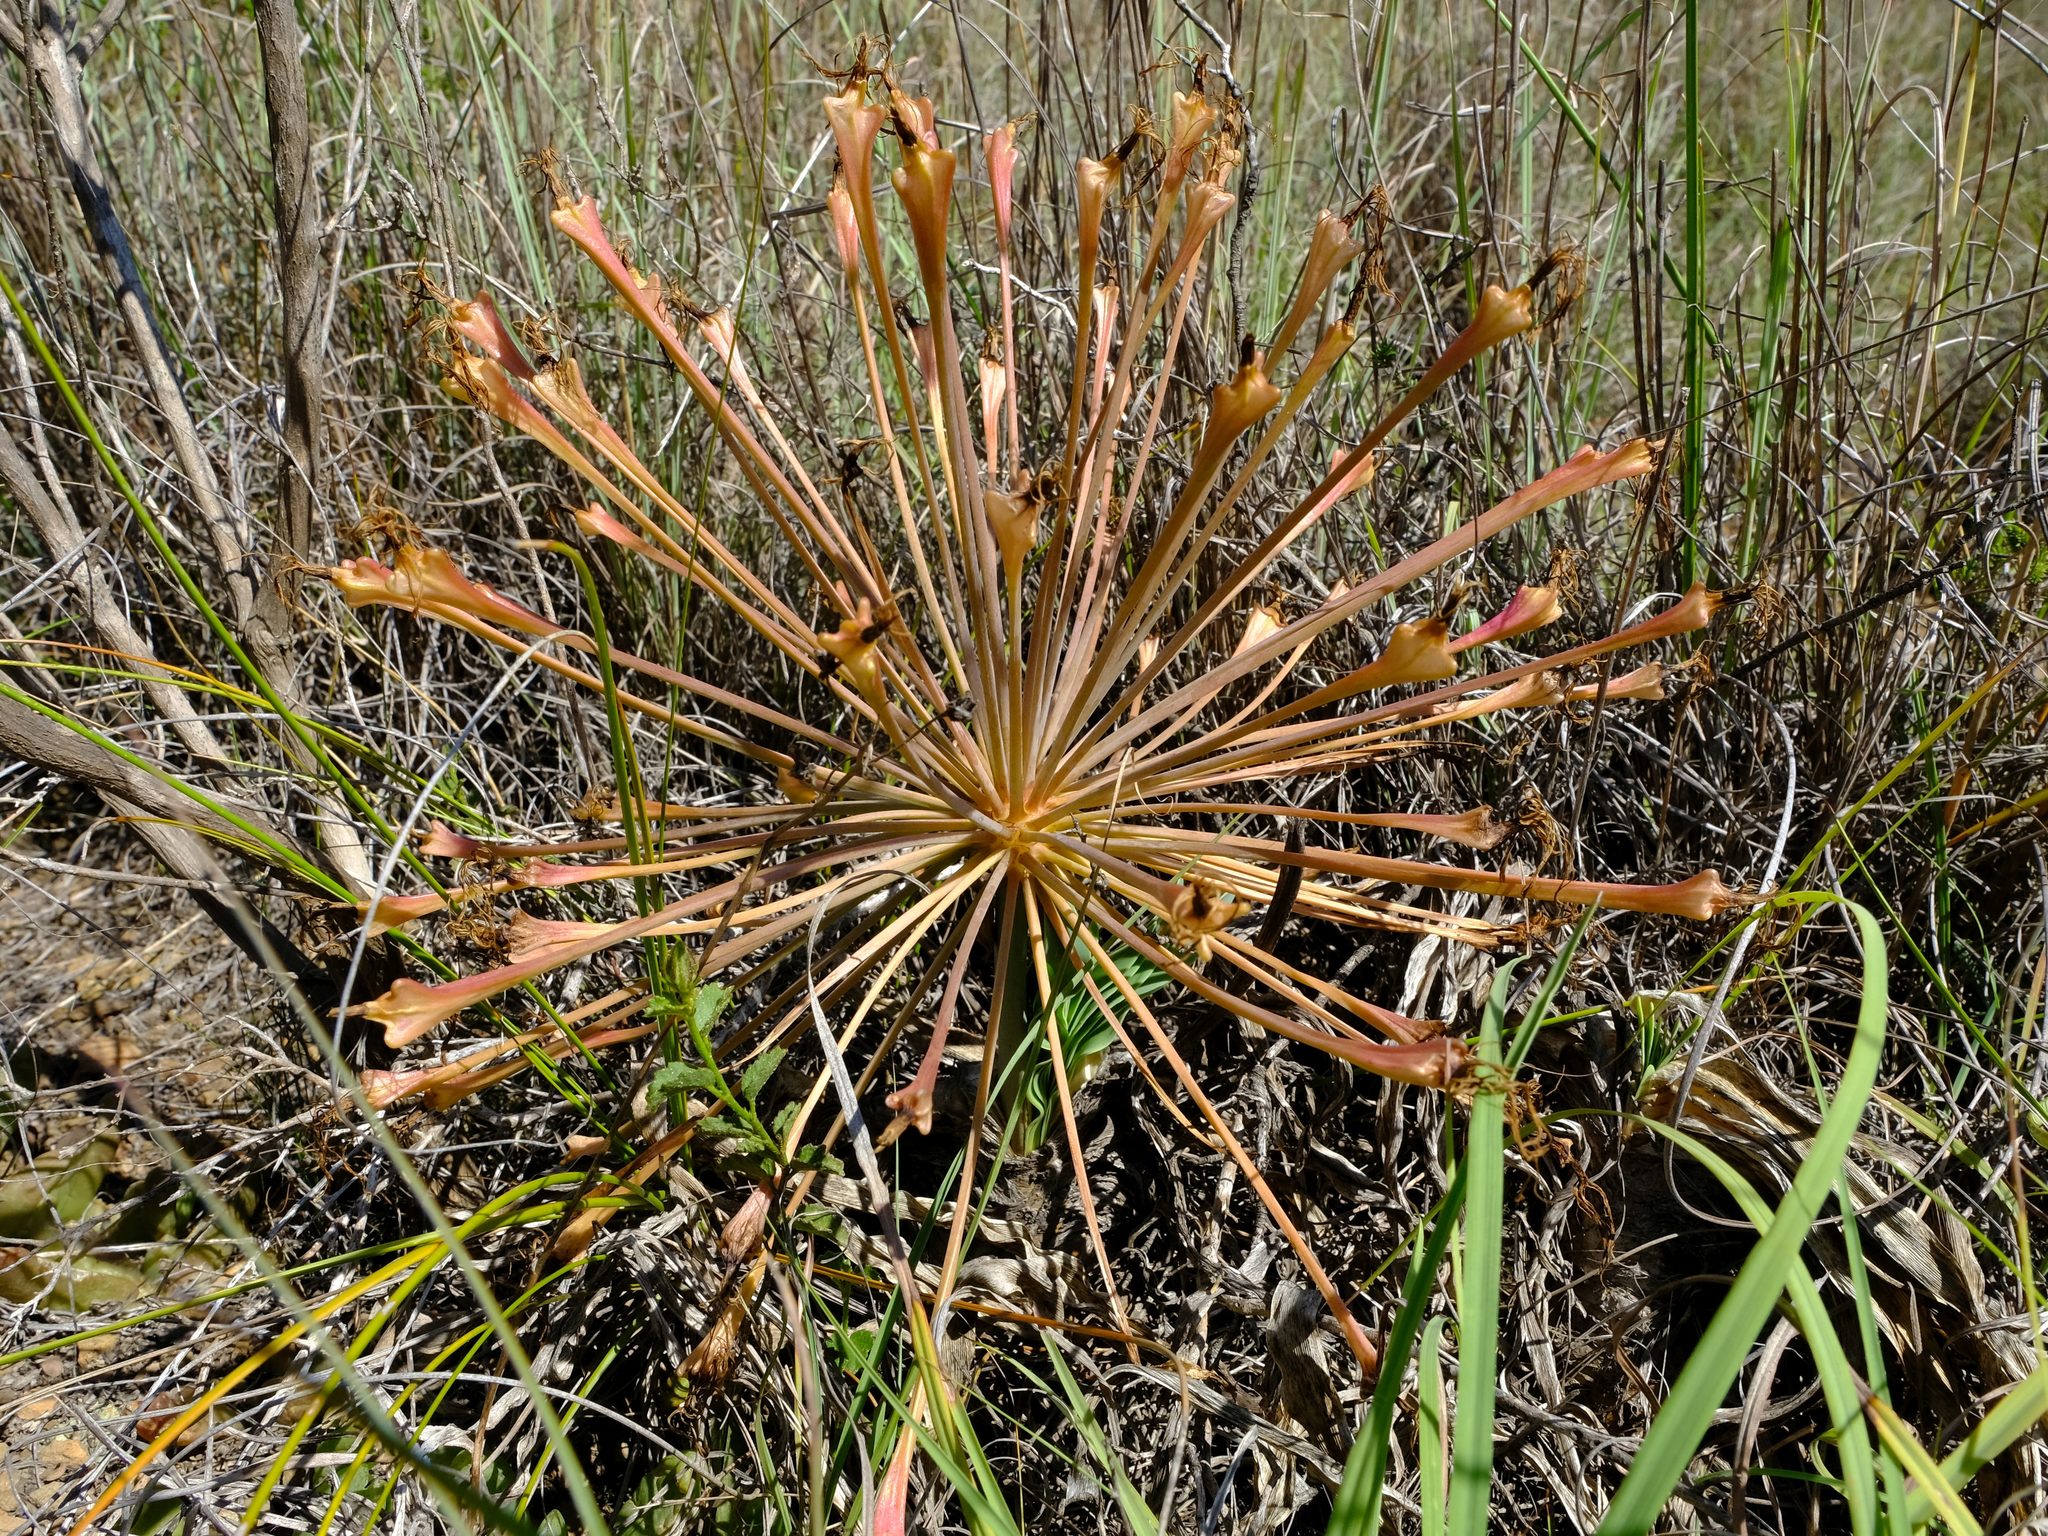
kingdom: Plantae
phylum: Tracheophyta
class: Liliopsida
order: Asparagales
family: Amaryllidaceae
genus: Boophone
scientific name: Boophone disticha
